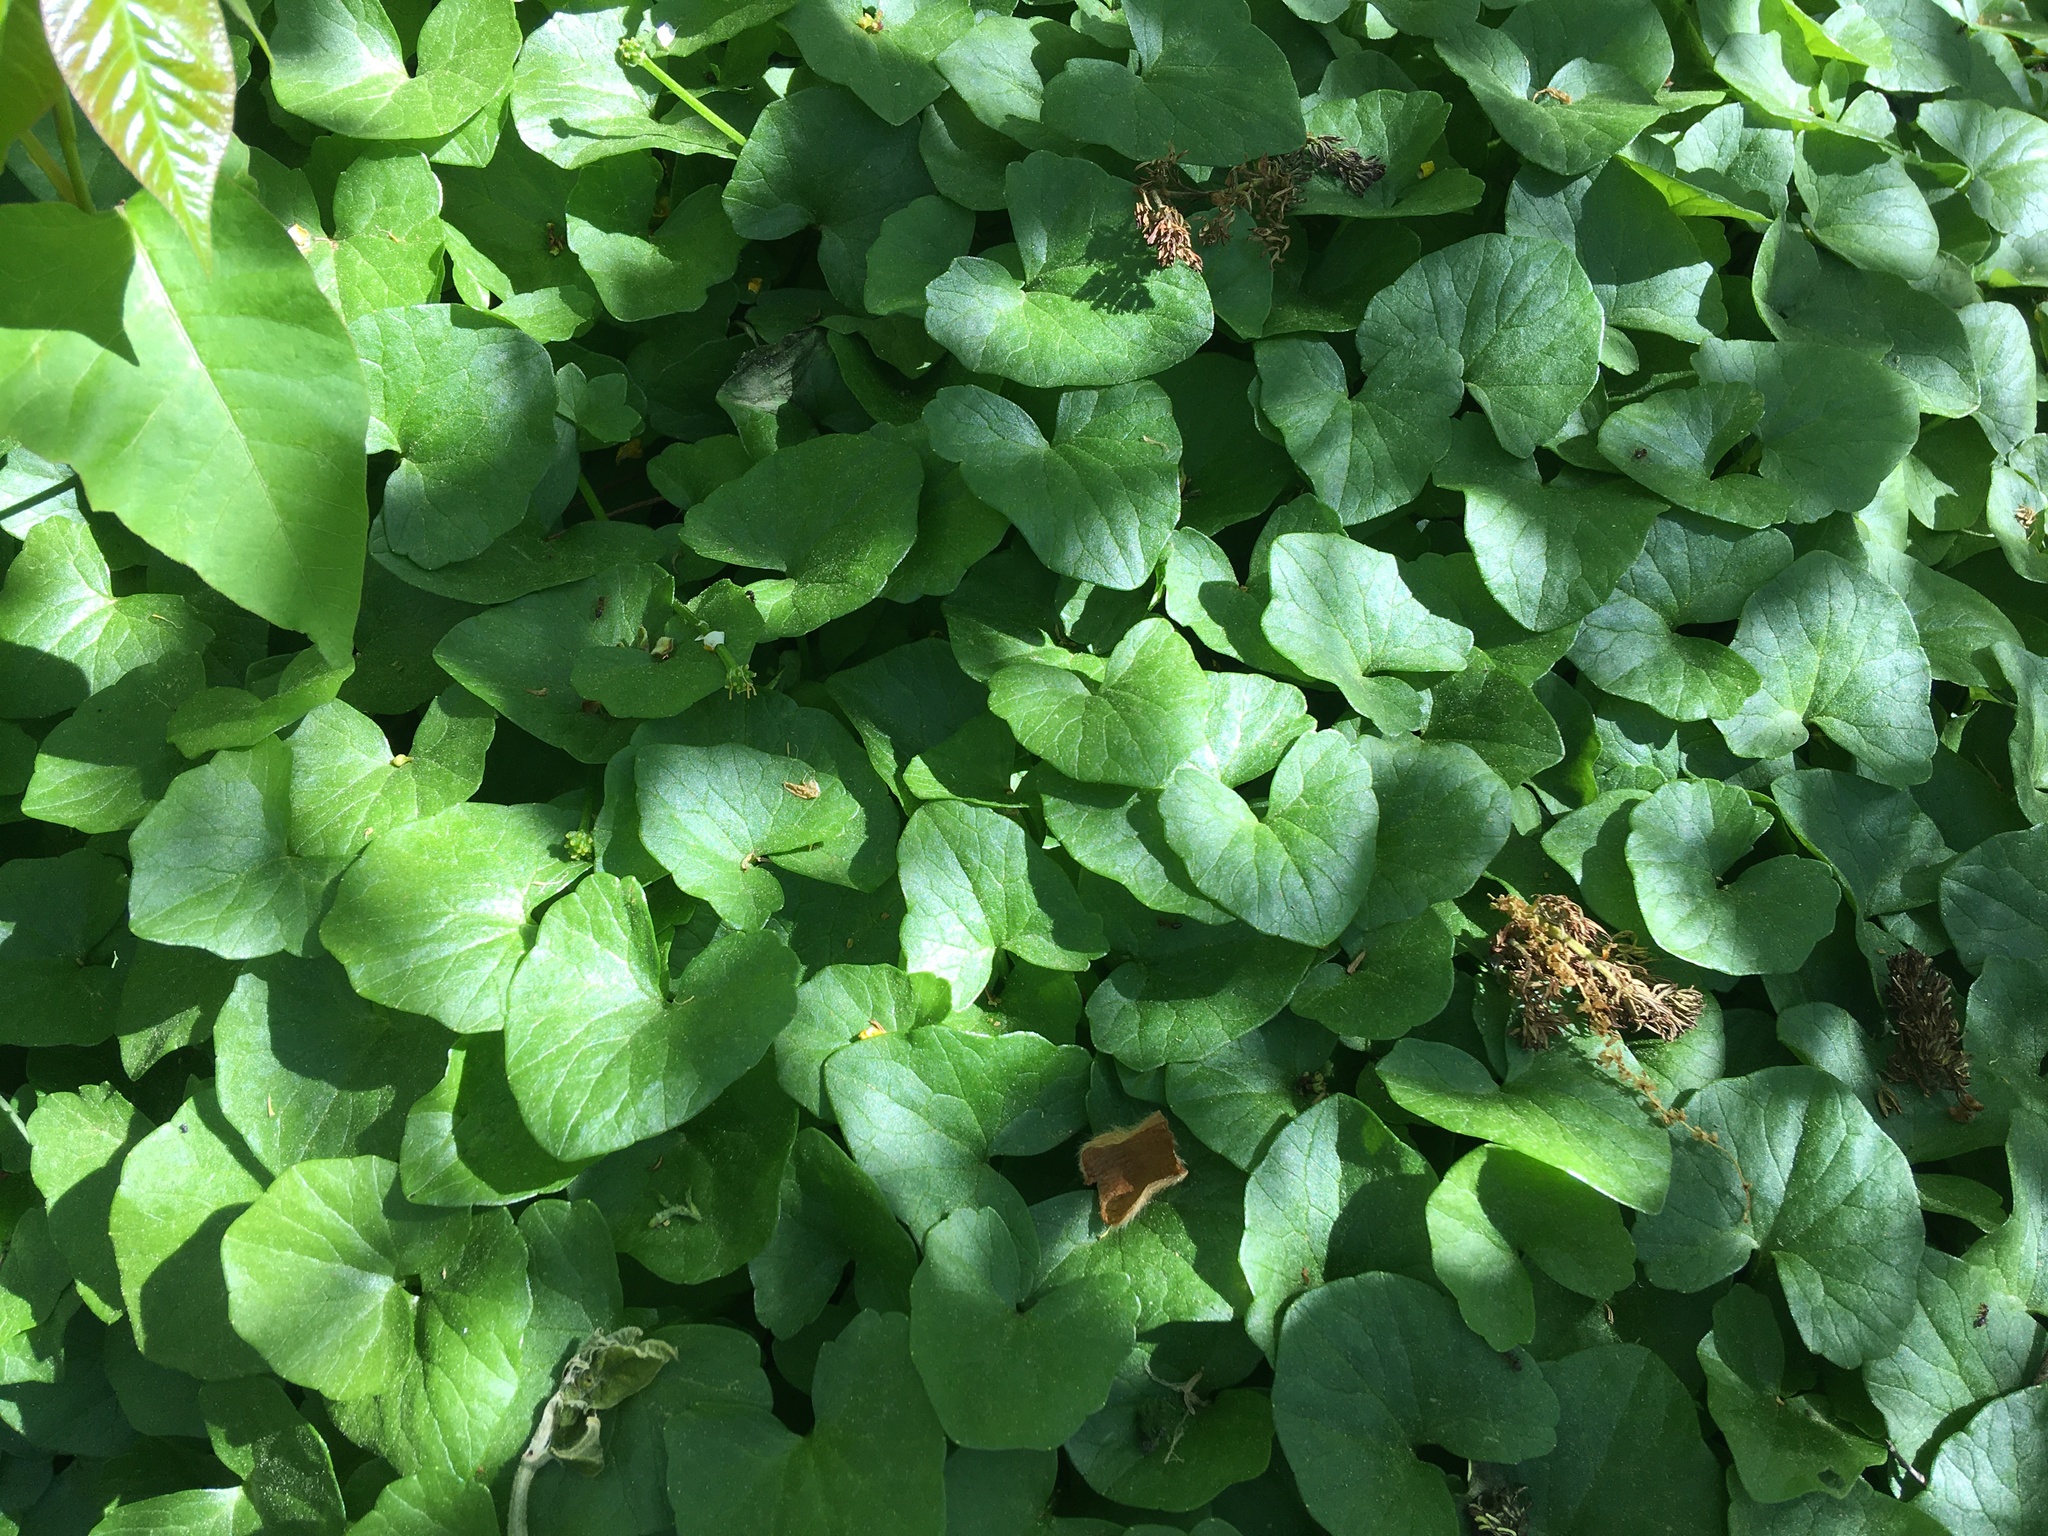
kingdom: Plantae
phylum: Tracheophyta
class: Magnoliopsida
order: Ranunculales
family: Ranunculaceae
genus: Ficaria
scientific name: Ficaria verna
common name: Lesser celandine
